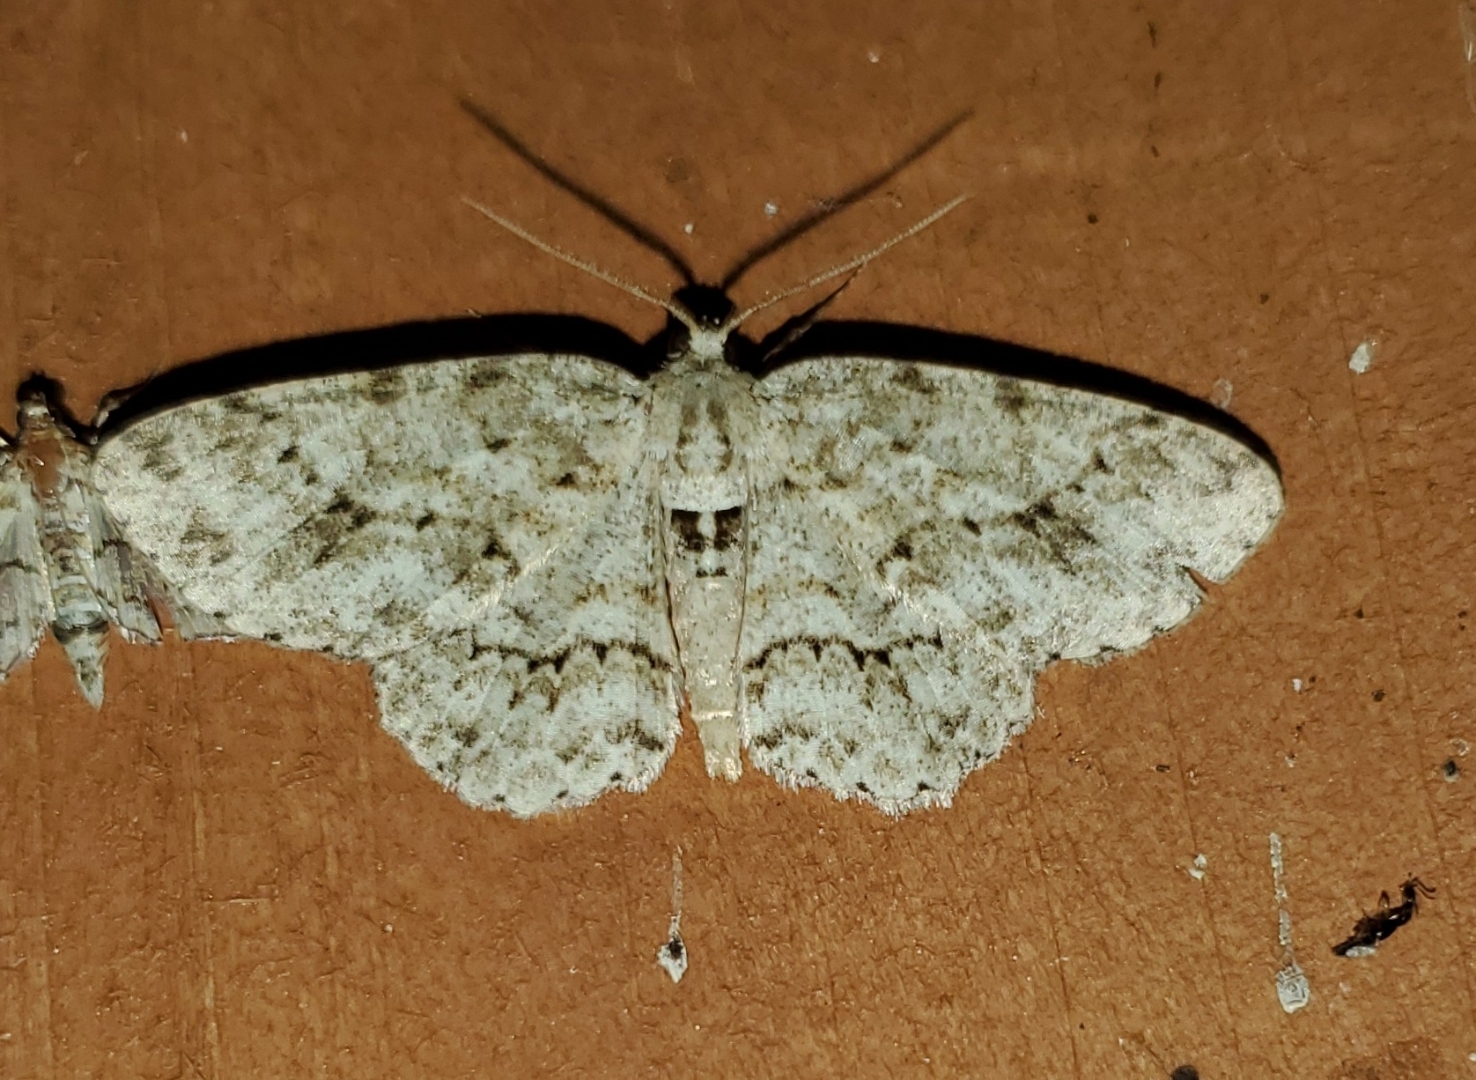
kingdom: Animalia
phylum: Arthropoda
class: Insecta
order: Lepidoptera
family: Geometridae
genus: Ectropis
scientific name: Ectropis crepuscularia
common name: Engrailed
